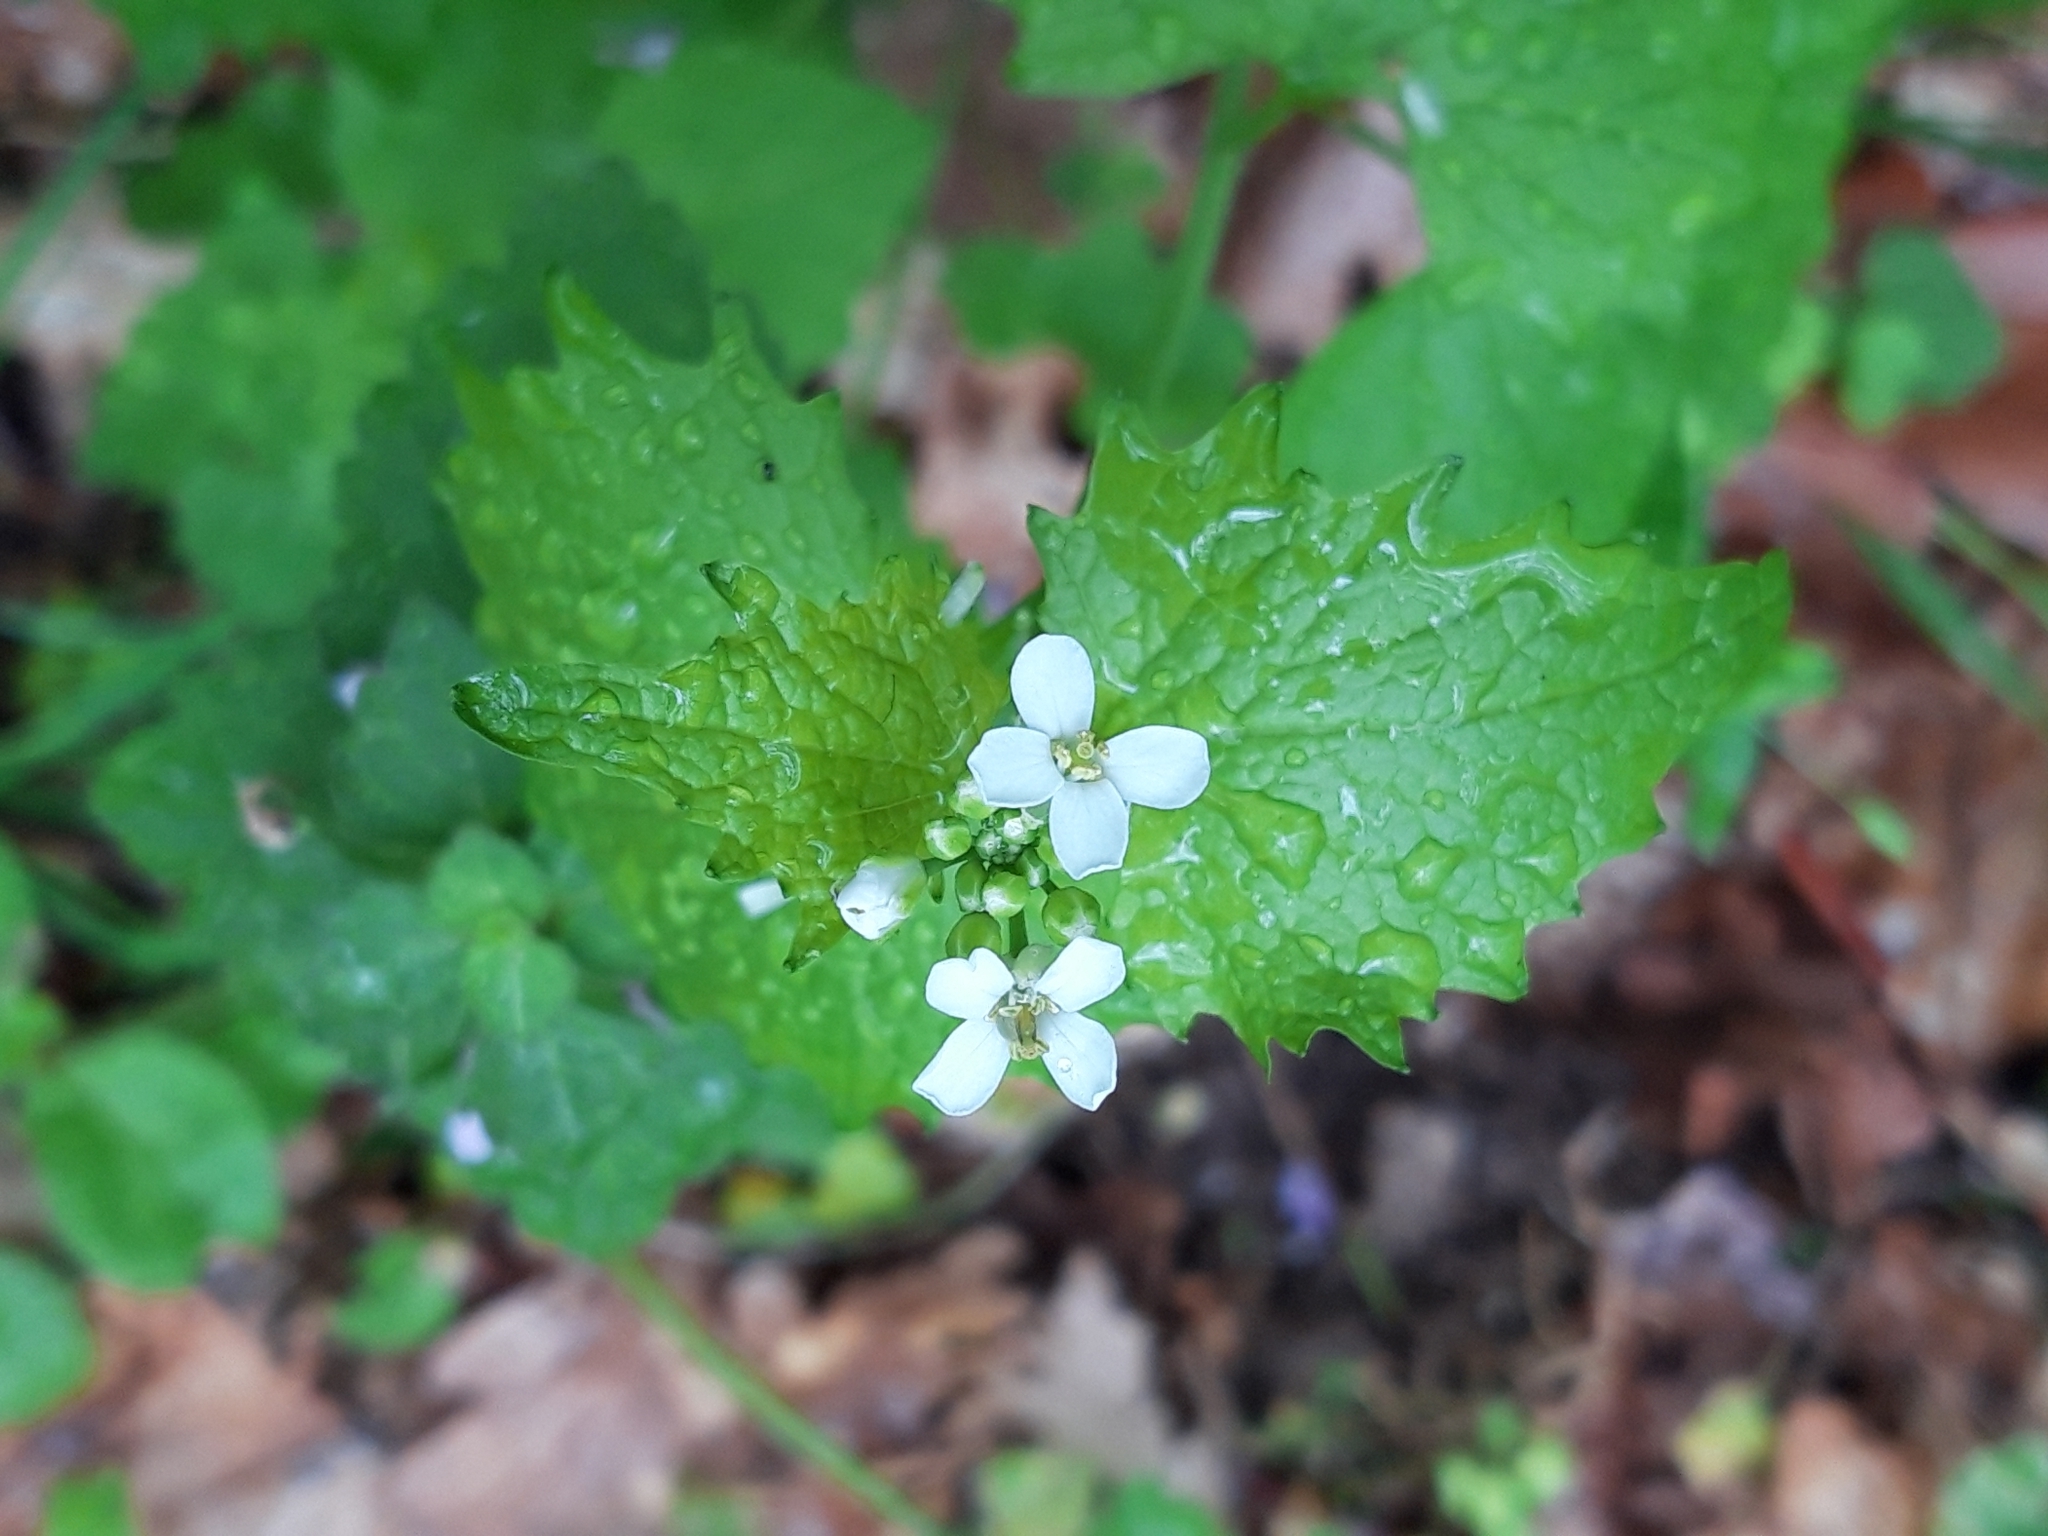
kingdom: Plantae
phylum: Tracheophyta
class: Magnoliopsida
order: Brassicales
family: Brassicaceae
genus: Alliaria
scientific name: Alliaria petiolata
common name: Garlic mustard
